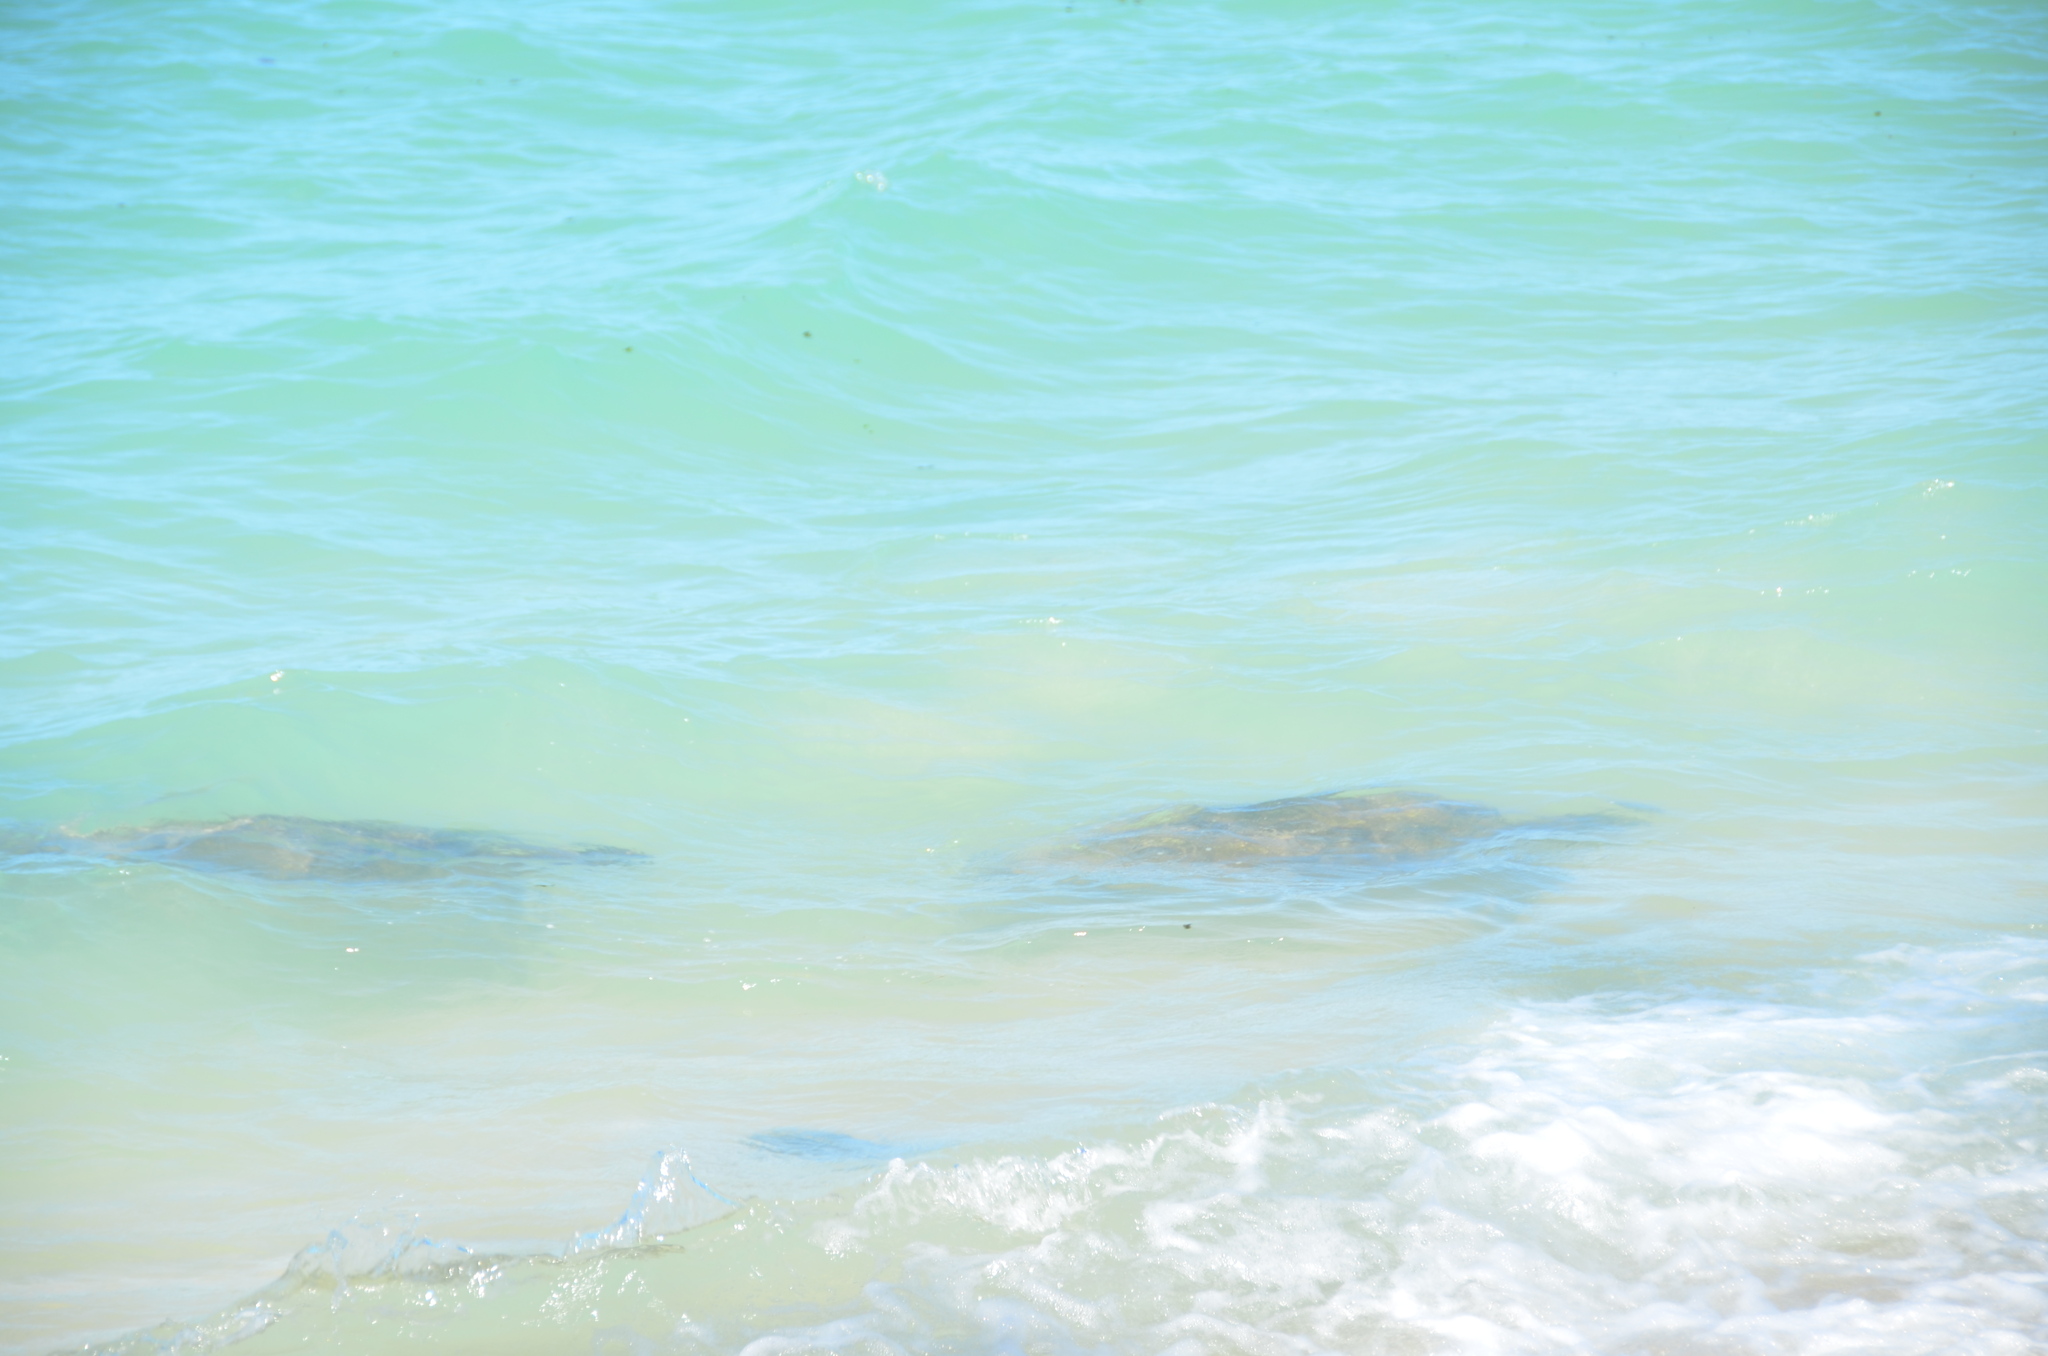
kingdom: Animalia
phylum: Chordata
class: Testudines
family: Cheloniidae
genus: Chelonia
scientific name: Chelonia mydas
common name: Green turtle
